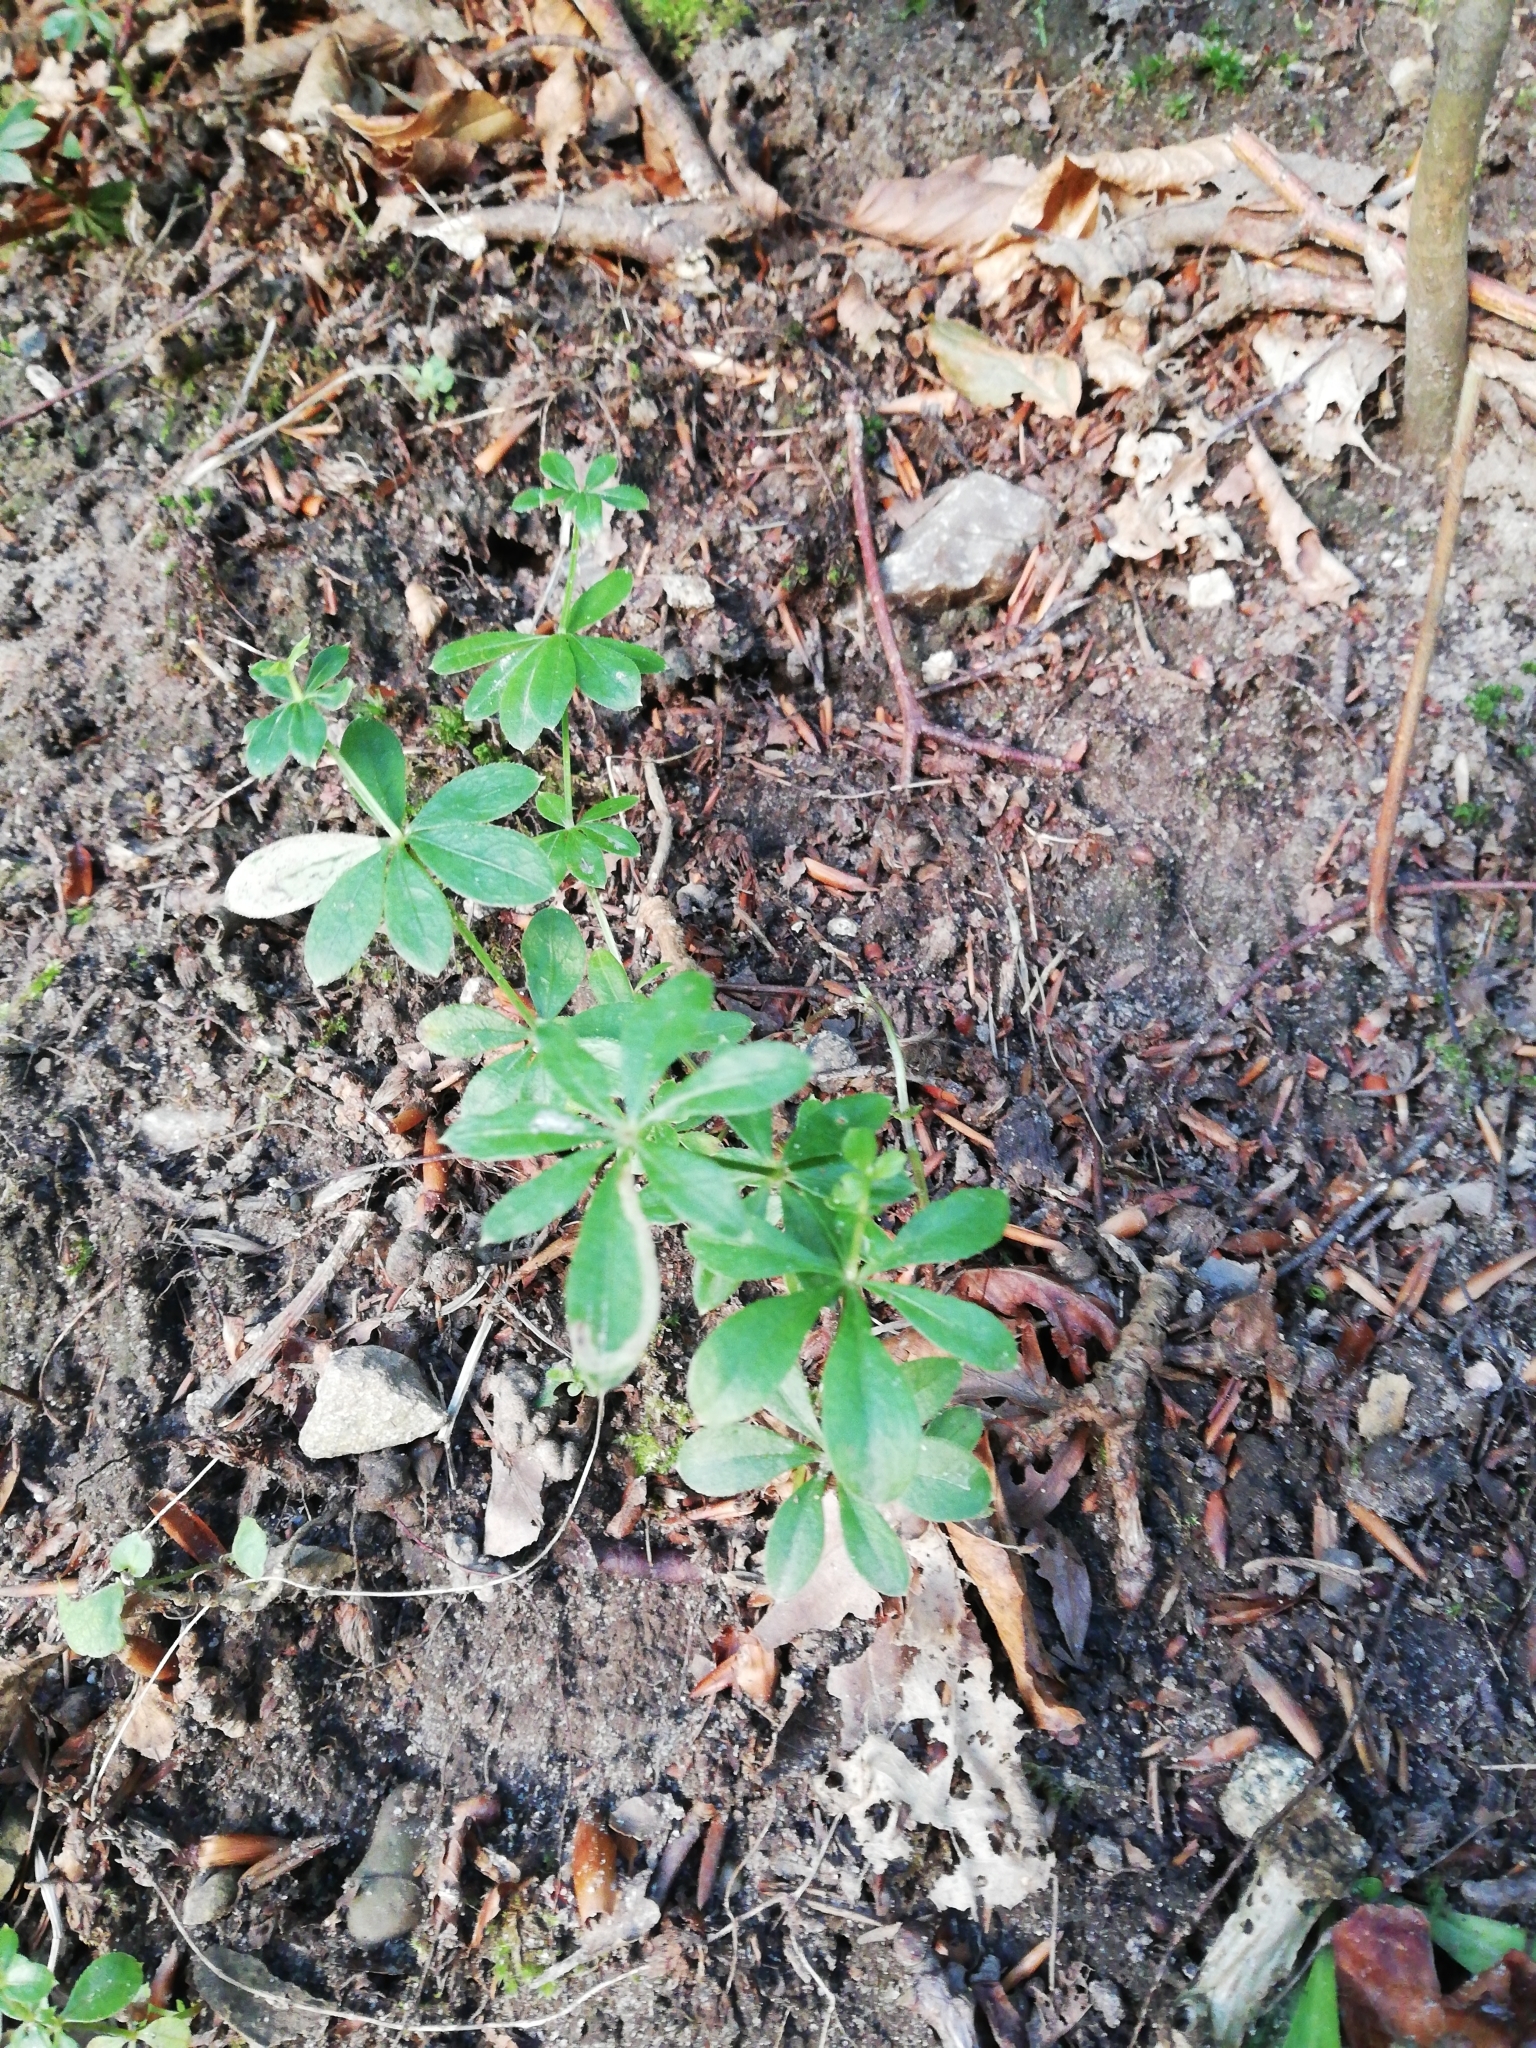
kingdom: Plantae
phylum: Tracheophyta
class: Magnoliopsida
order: Gentianales
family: Rubiaceae
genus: Galium
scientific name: Galium odoratum
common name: Sweet woodruff
